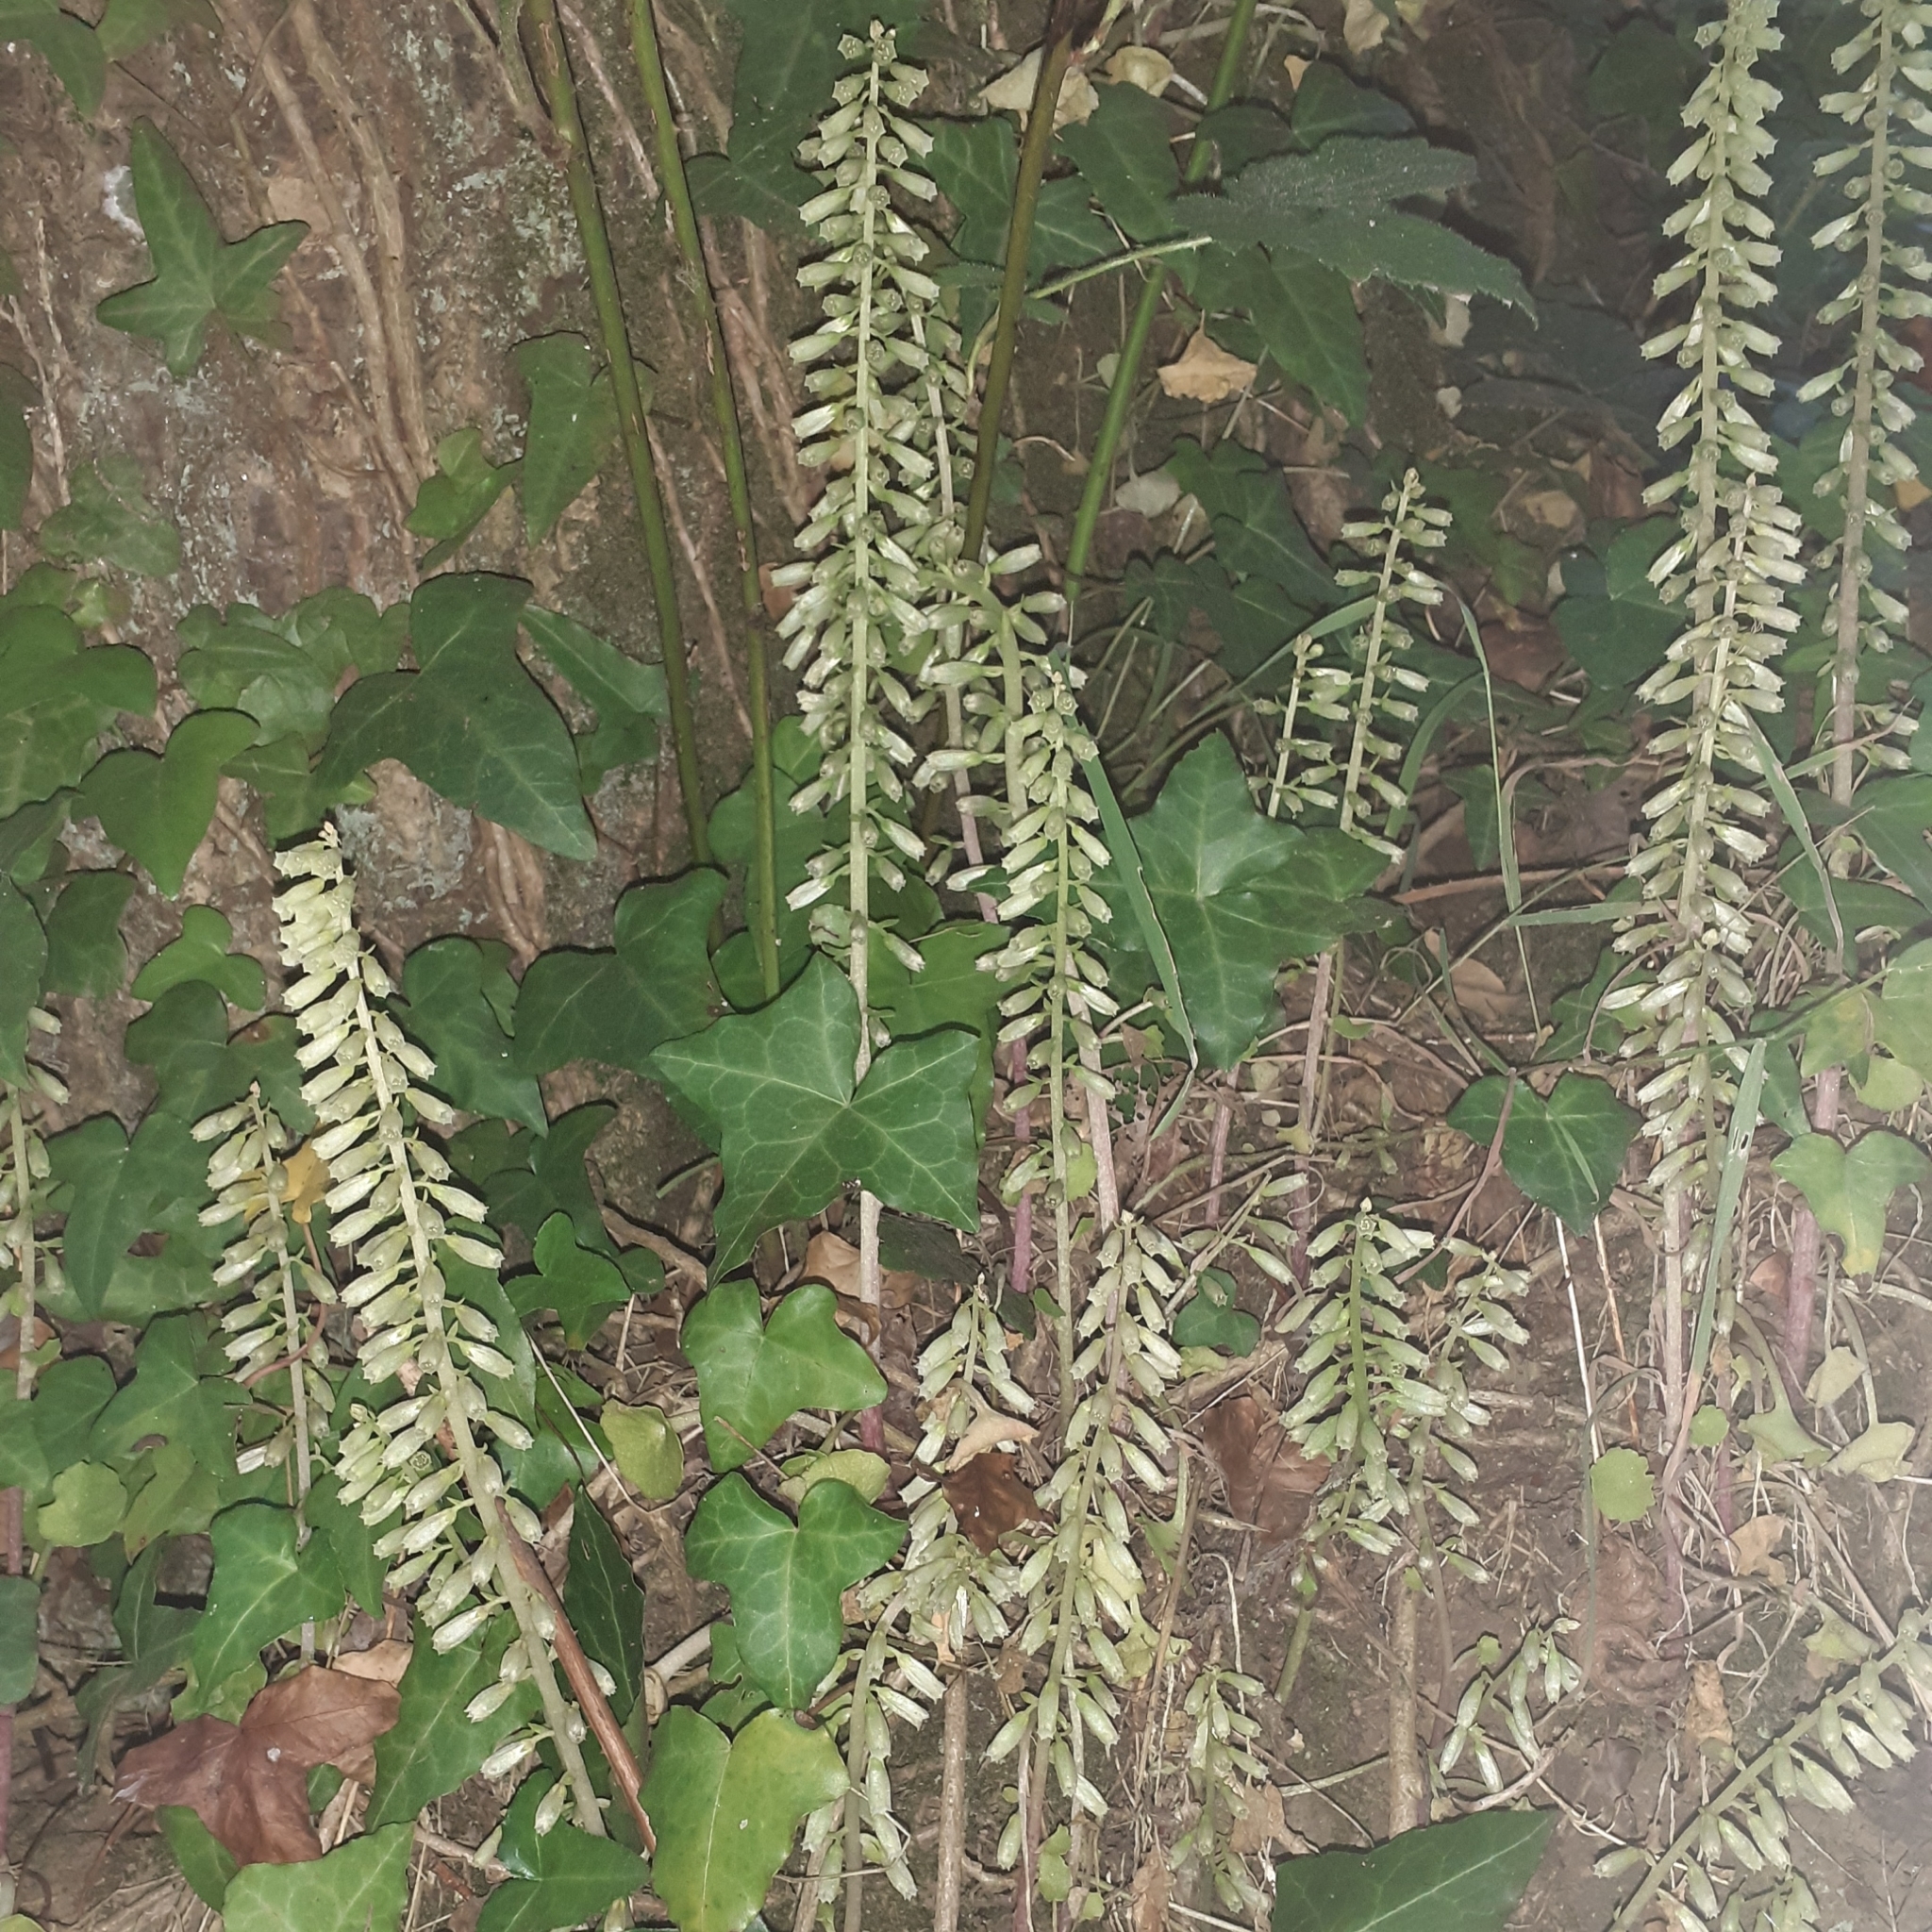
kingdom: Plantae
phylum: Tracheophyta
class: Magnoliopsida
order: Saxifragales
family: Crassulaceae
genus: Umbilicus
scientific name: Umbilicus rupestris
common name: Navelwort
